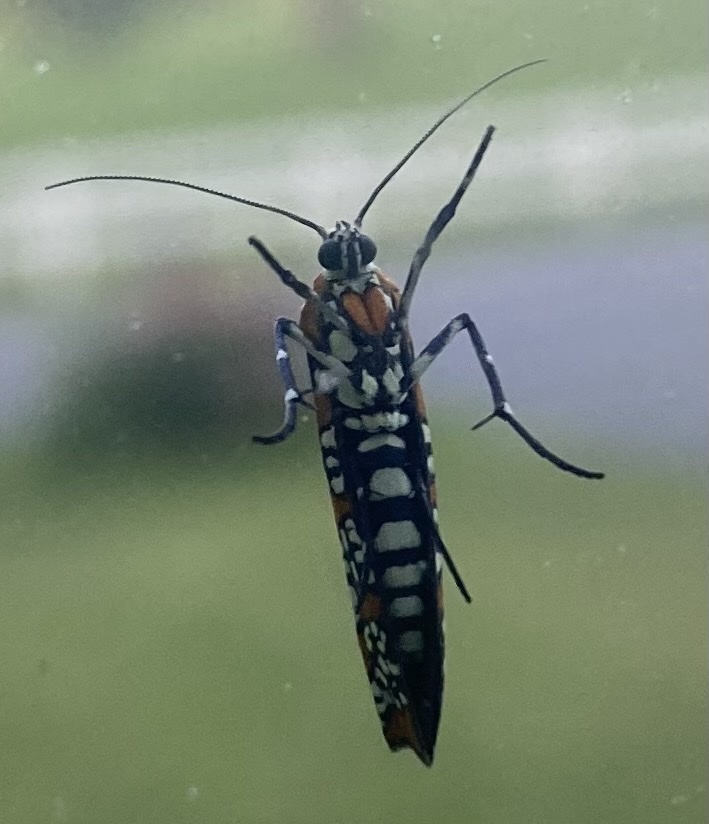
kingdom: Animalia
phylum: Arthropoda
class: Insecta
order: Lepidoptera
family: Attevidae
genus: Atteva
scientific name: Atteva punctella
